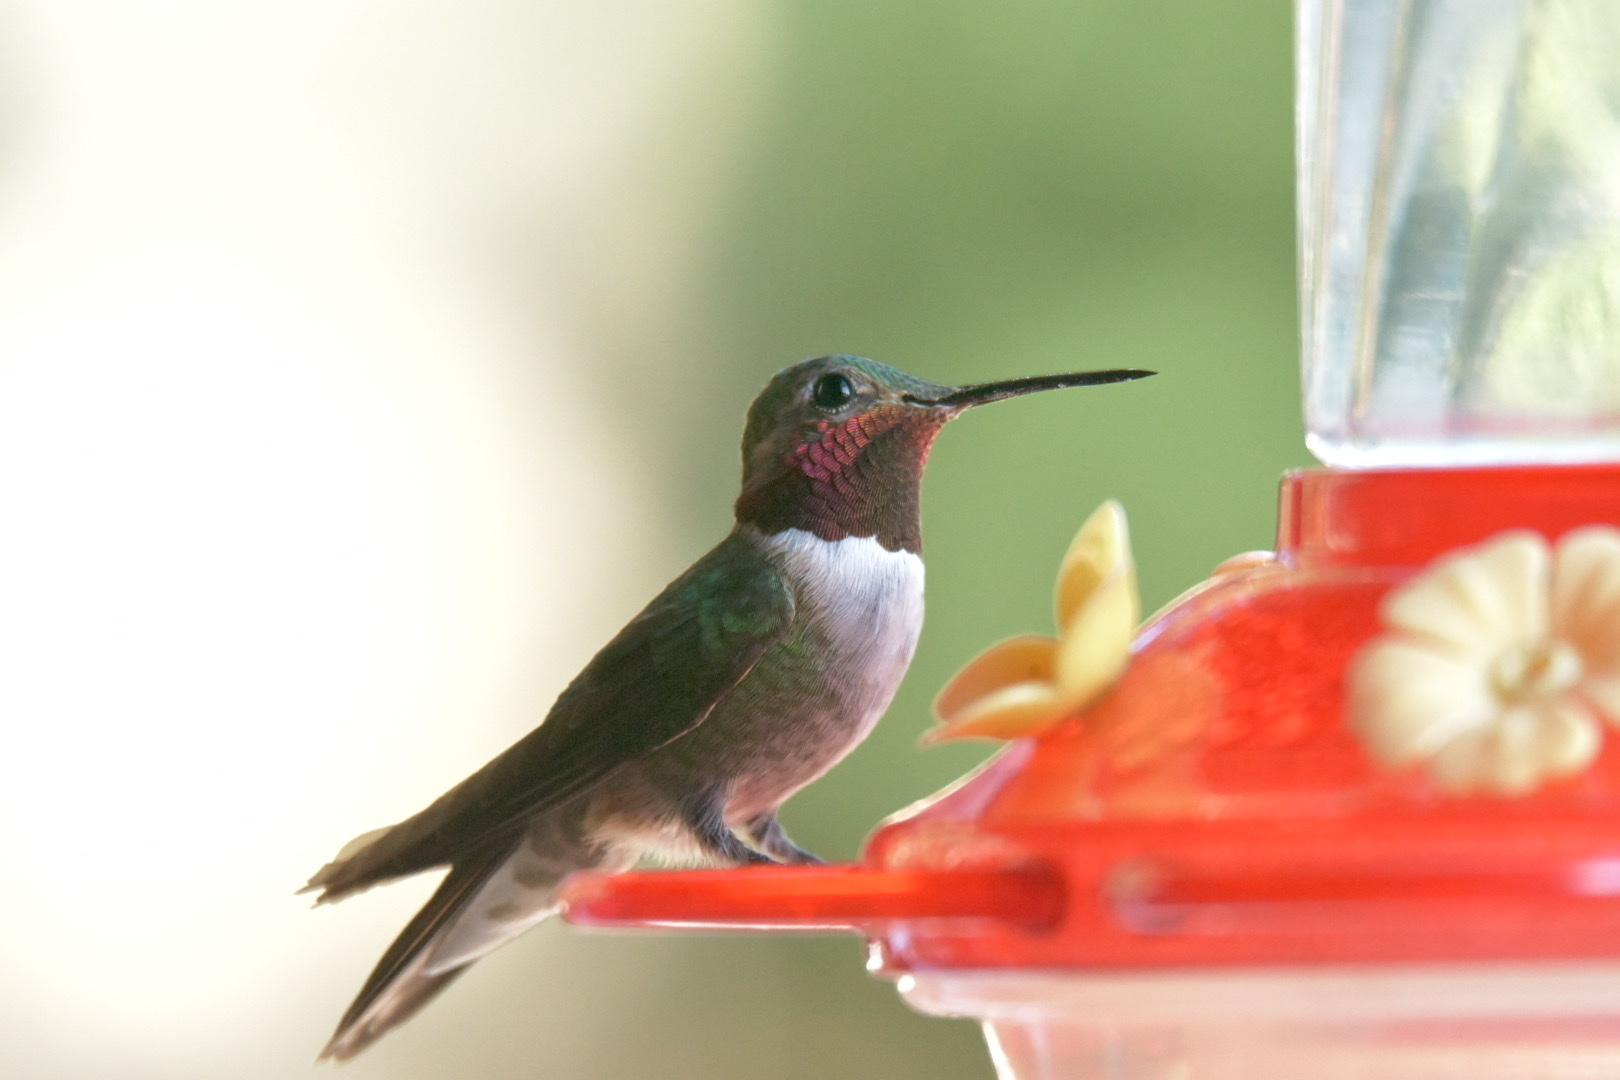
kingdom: Animalia
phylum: Chordata
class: Aves
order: Apodiformes
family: Trochilidae
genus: Selasphorus
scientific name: Selasphorus platycercus
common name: Broad-tailed hummingbird
